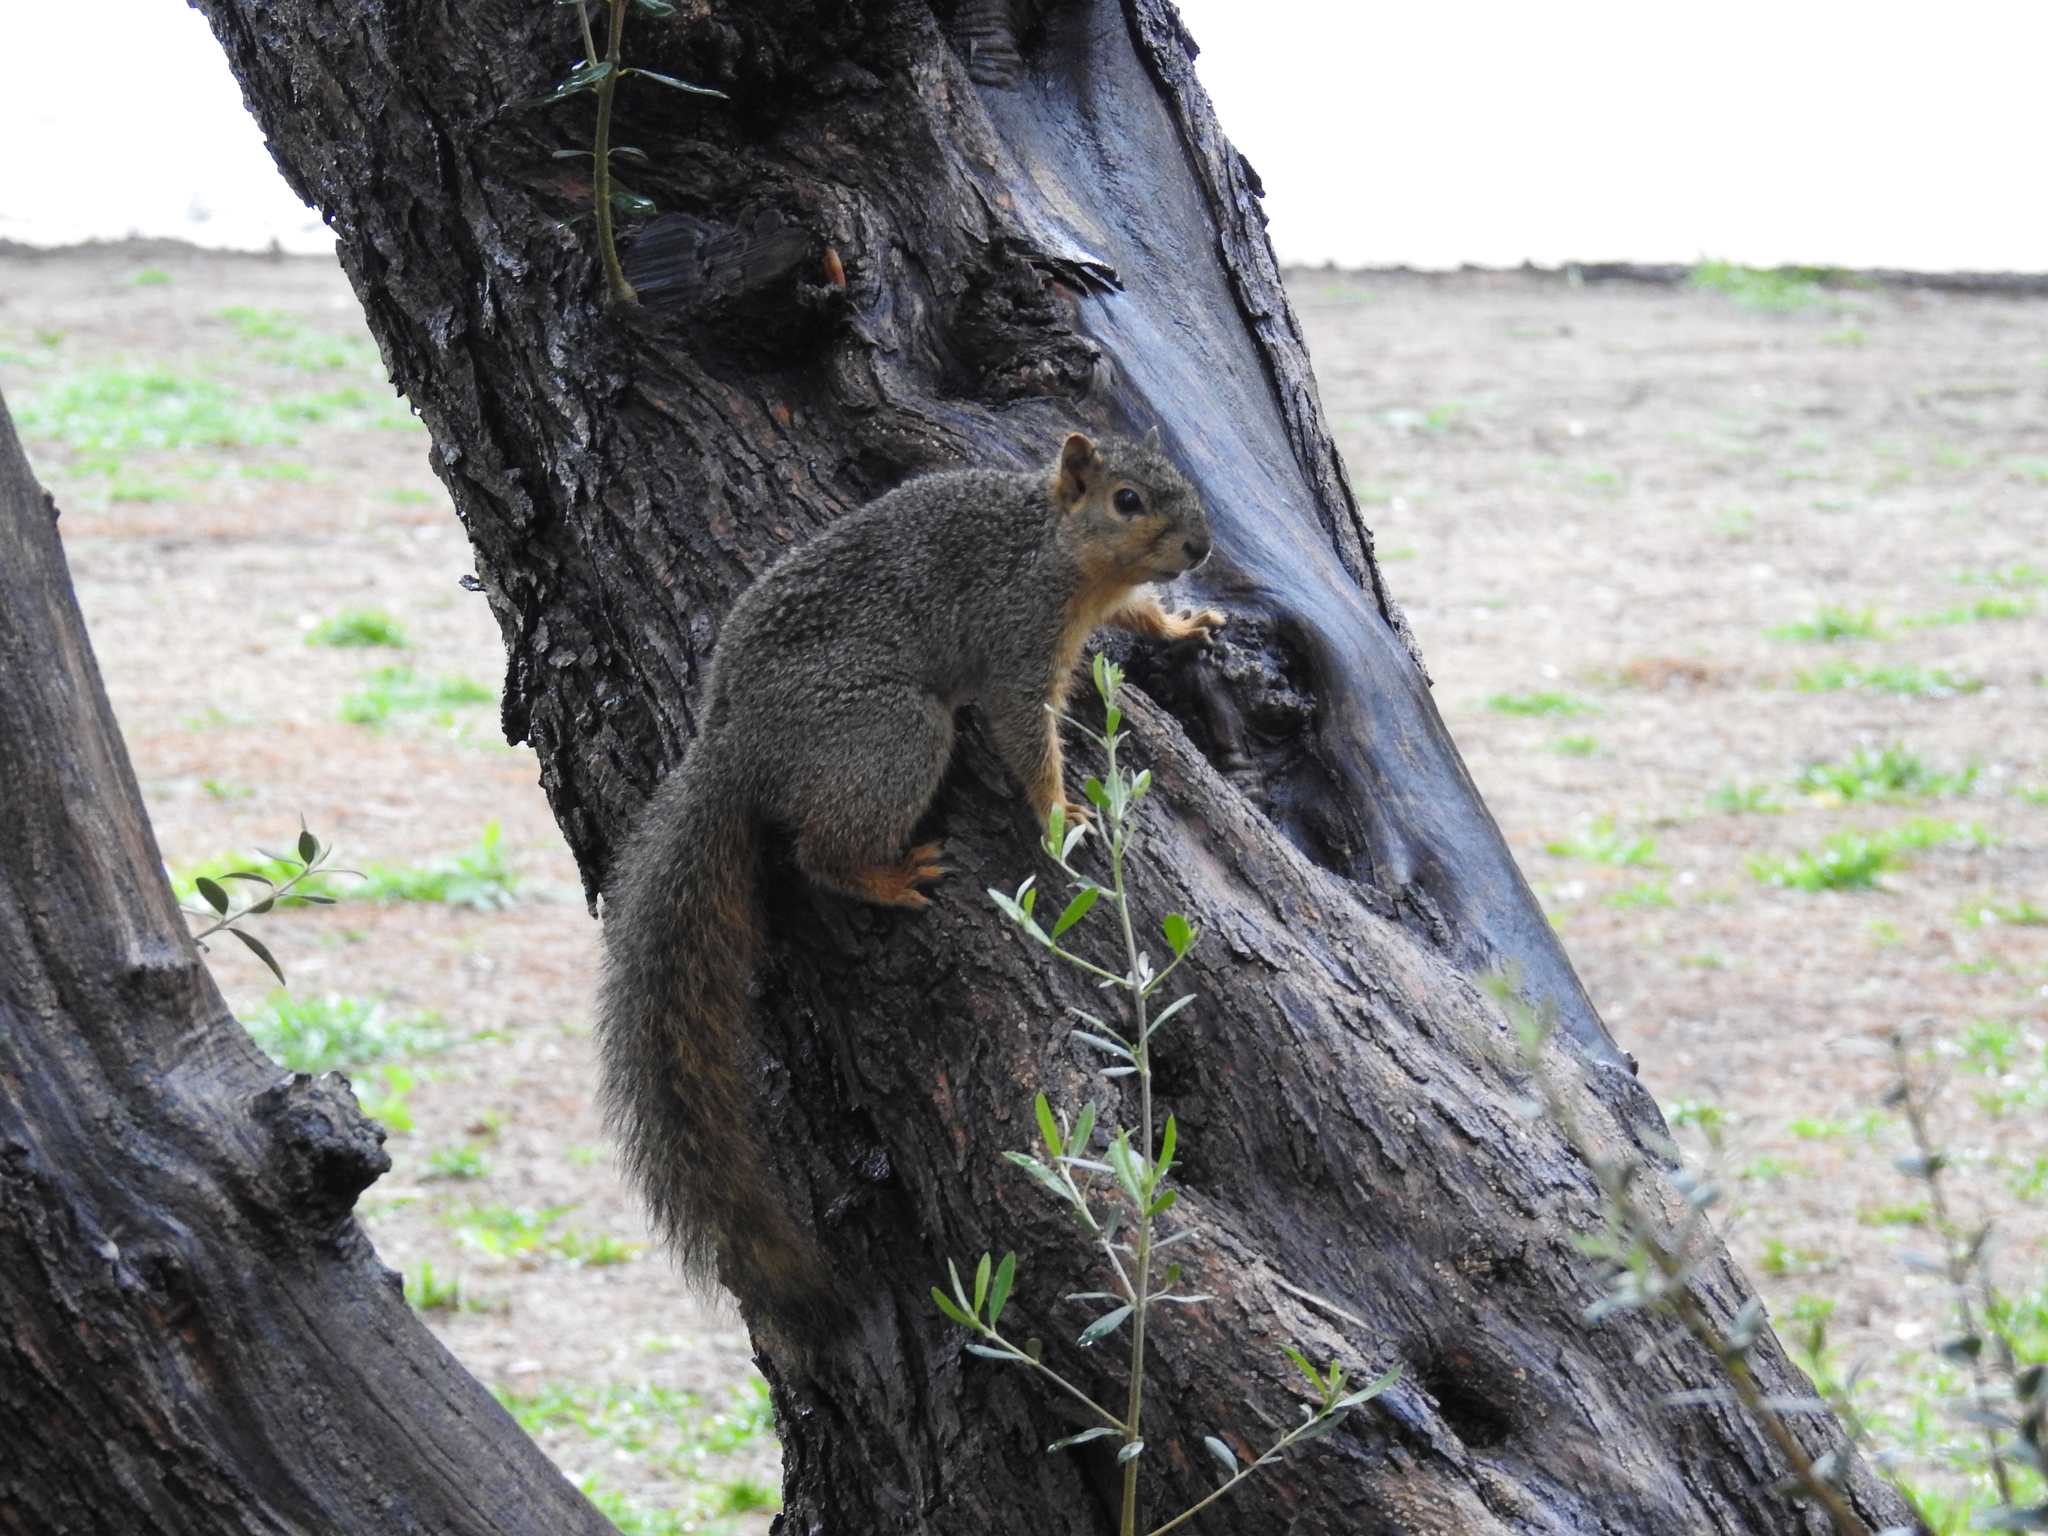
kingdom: Animalia
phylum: Chordata
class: Mammalia
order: Rodentia
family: Sciuridae
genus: Sciurus
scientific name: Sciurus niger
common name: Fox squirrel
